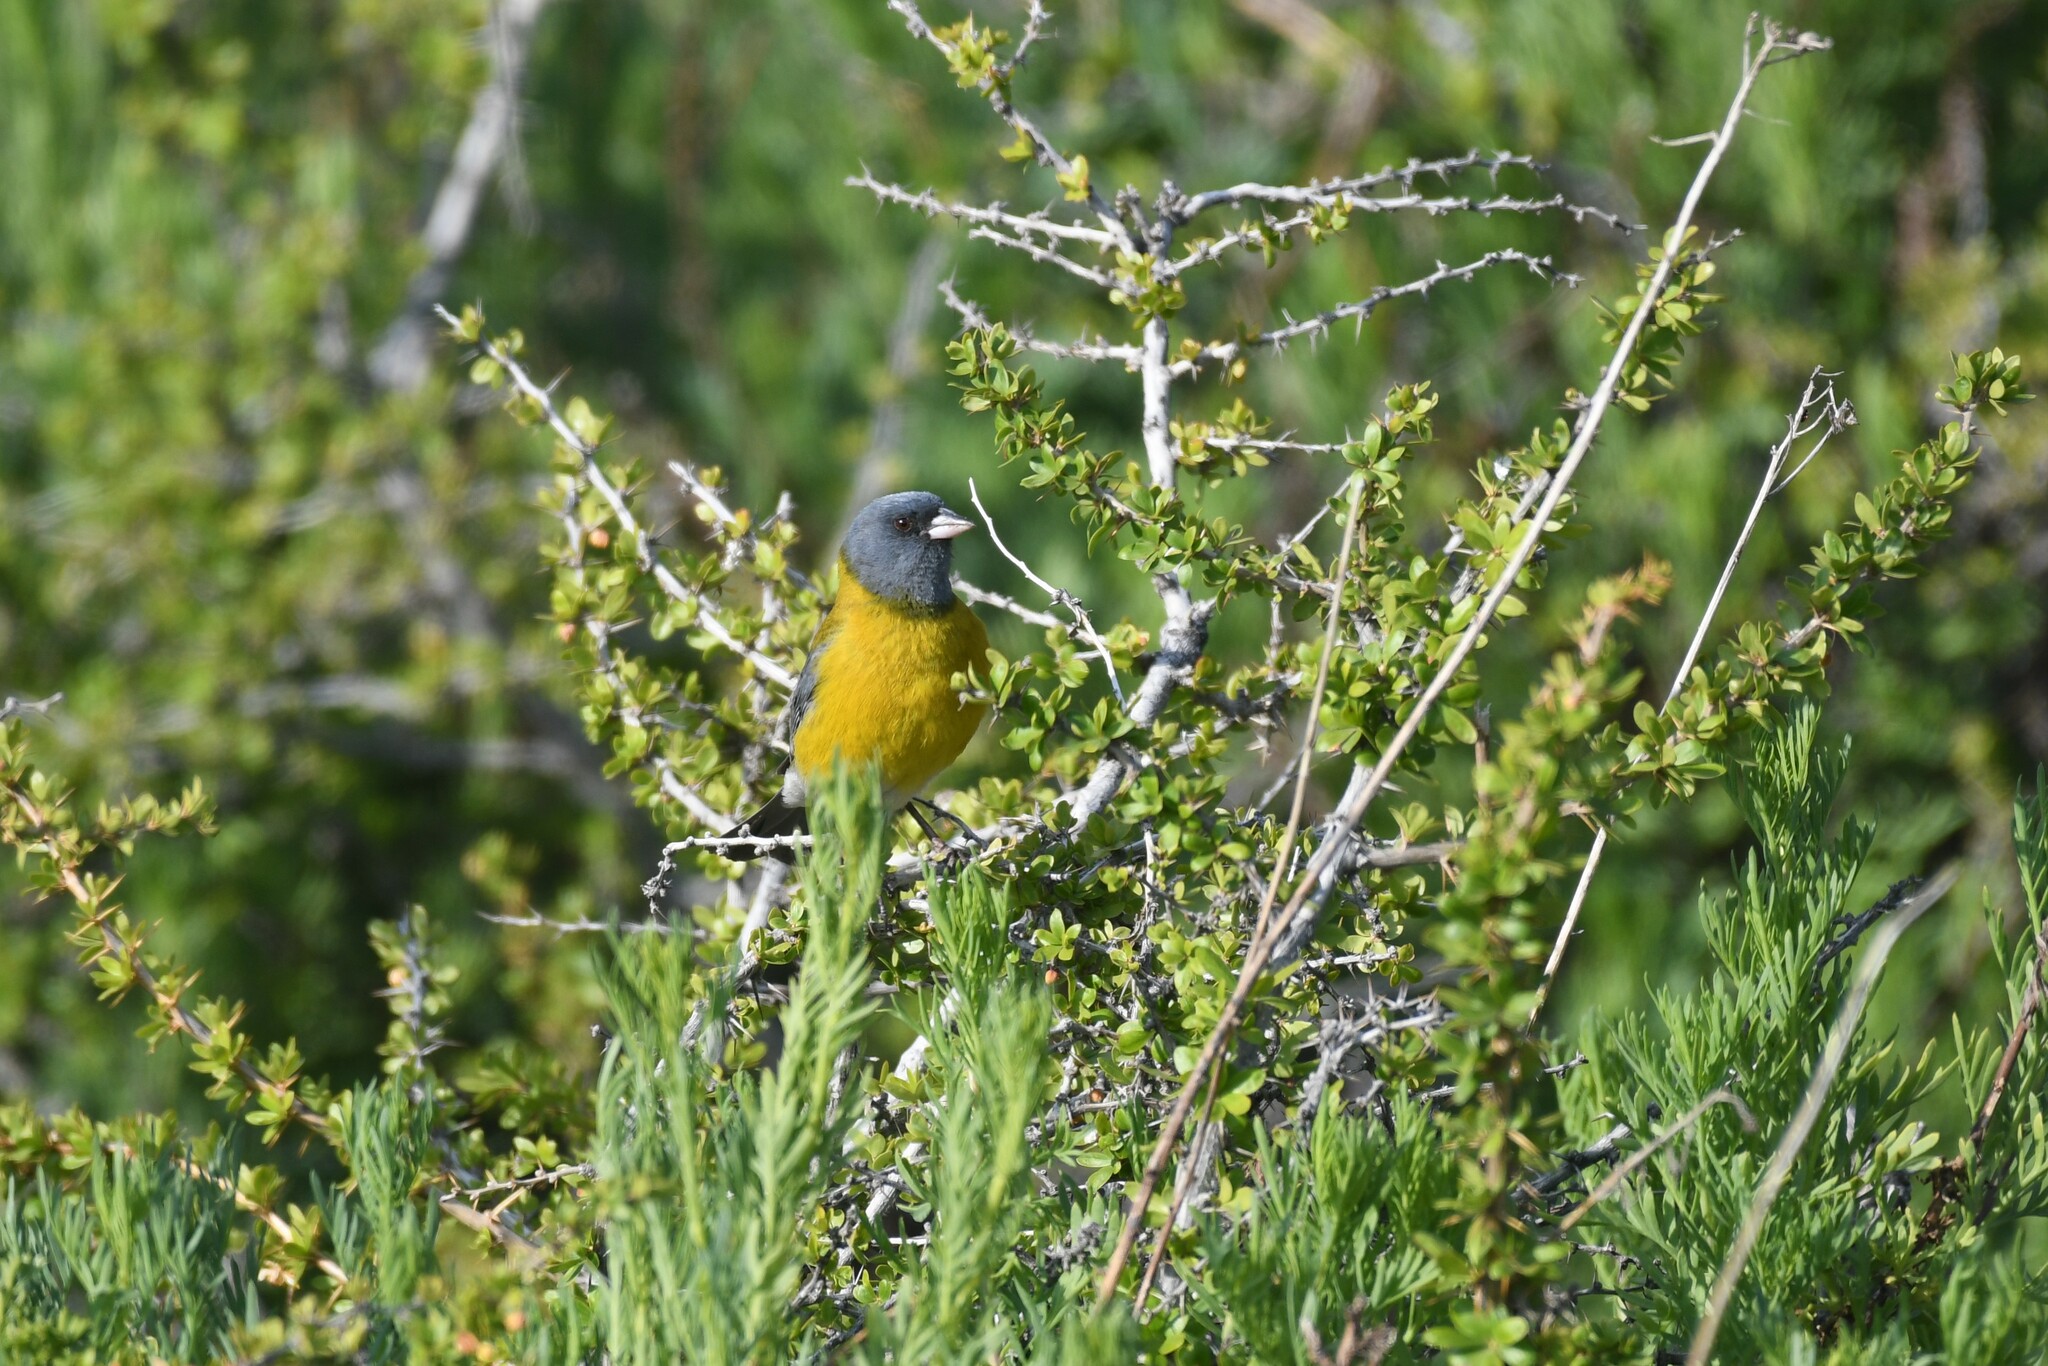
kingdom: Animalia
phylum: Chordata
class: Aves
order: Passeriformes
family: Thraupidae
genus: Phrygilus
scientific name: Phrygilus gayi
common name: Grey-hooded sierra finch
